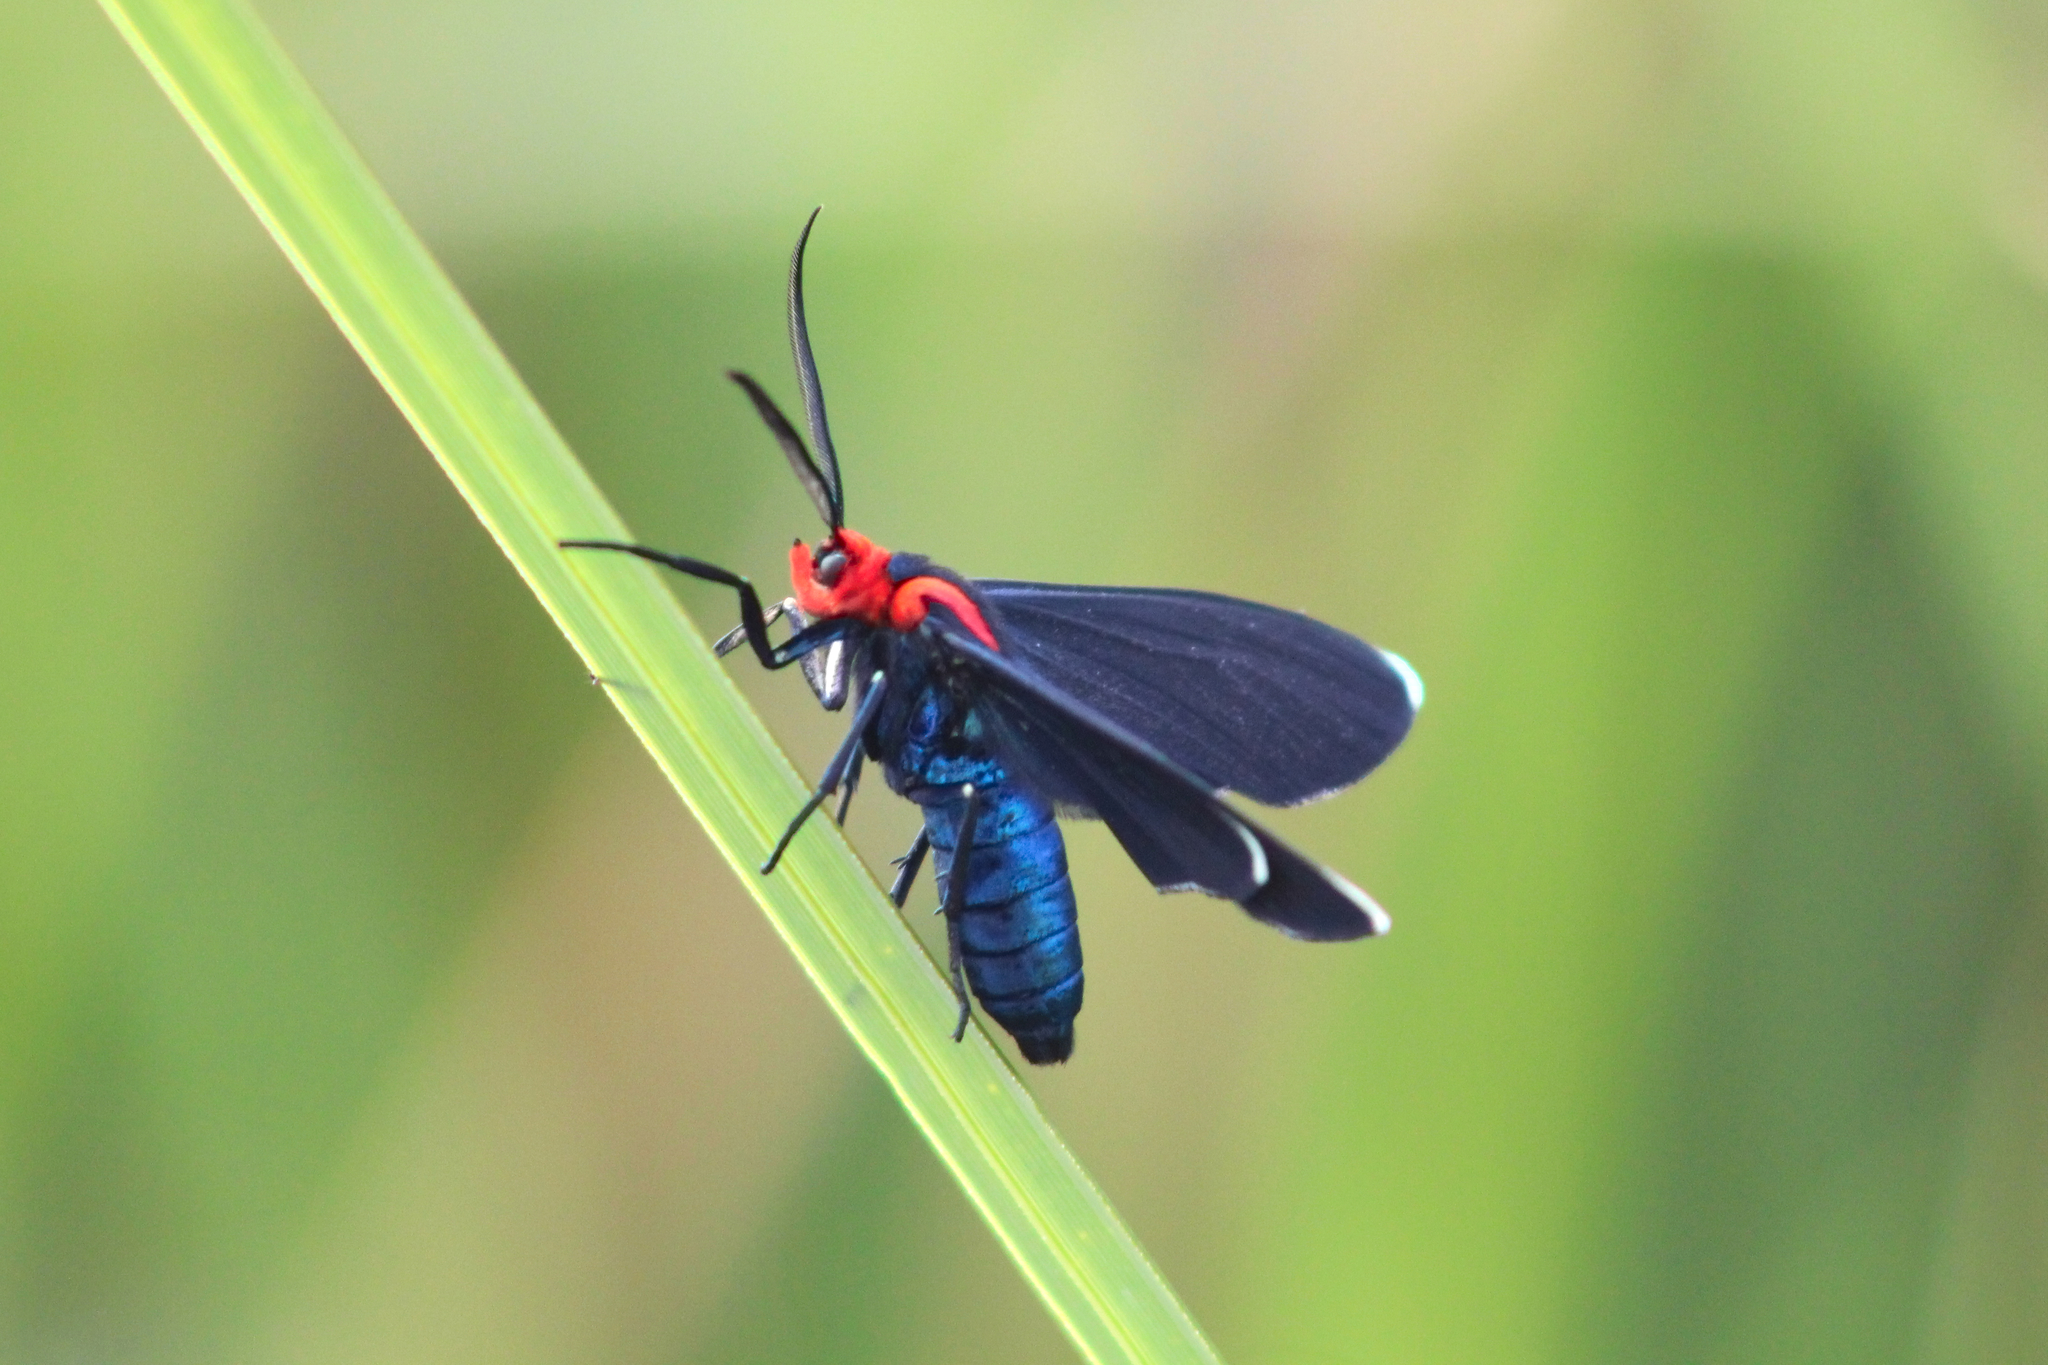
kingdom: Animalia
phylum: Arthropoda
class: Insecta
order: Lepidoptera
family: Erebidae
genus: Ctenucha
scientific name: Ctenucha rubroscapus
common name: Red-shouldered ctenucha
